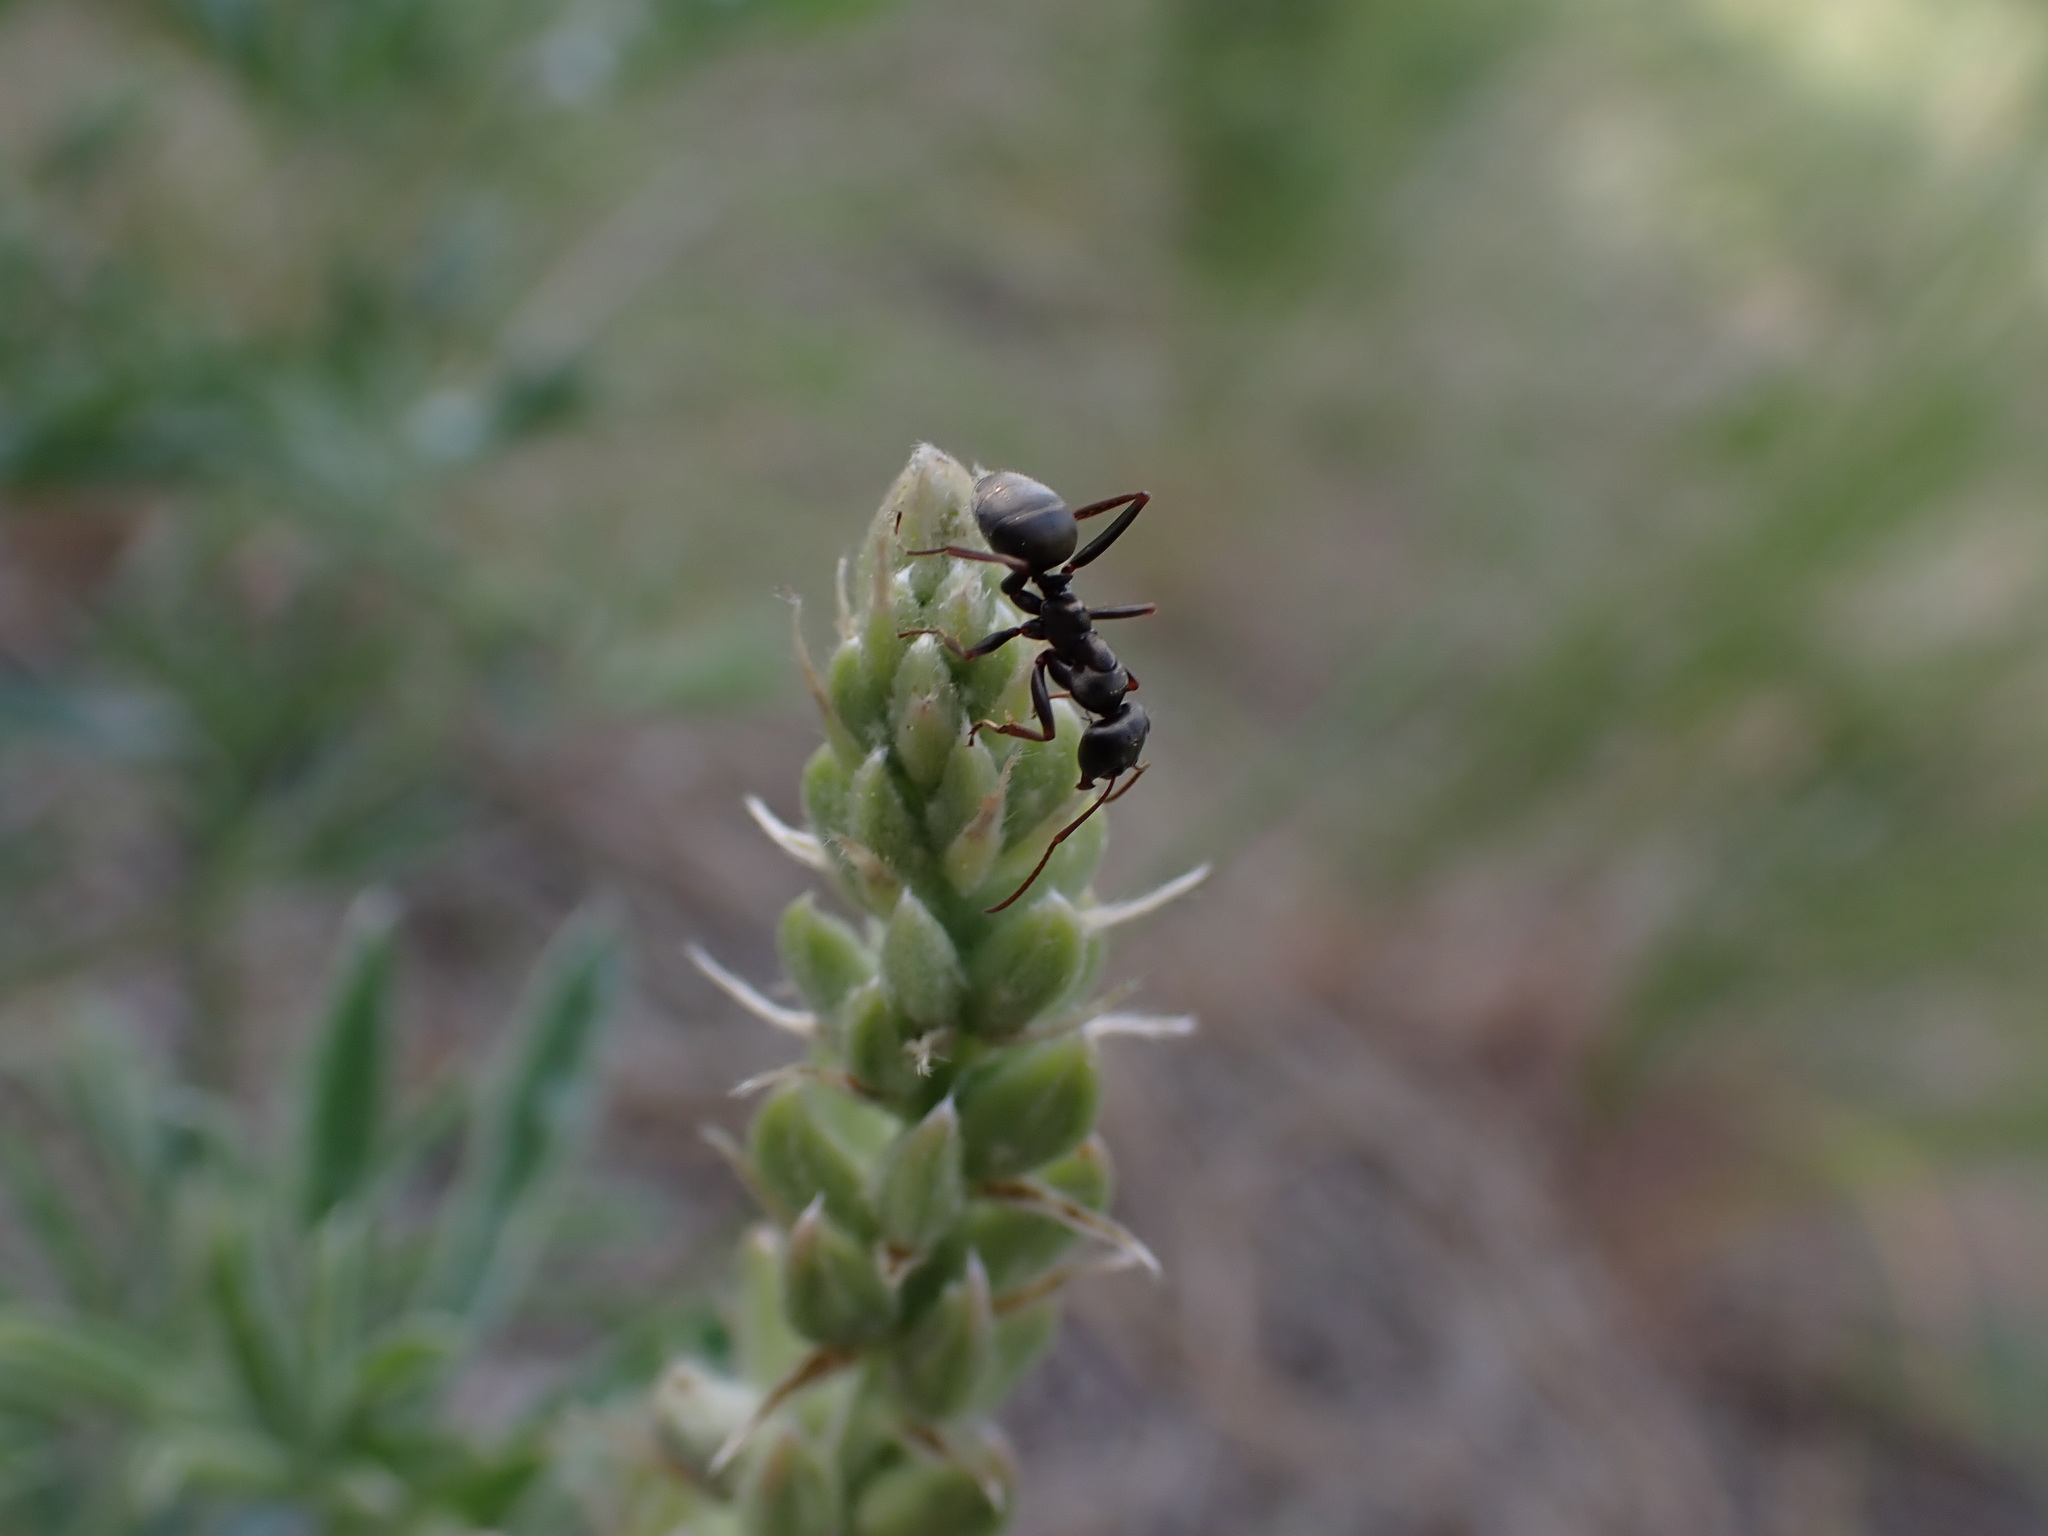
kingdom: Animalia
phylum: Arthropoda
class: Insecta
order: Hymenoptera
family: Formicidae
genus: Formica
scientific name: Formica
